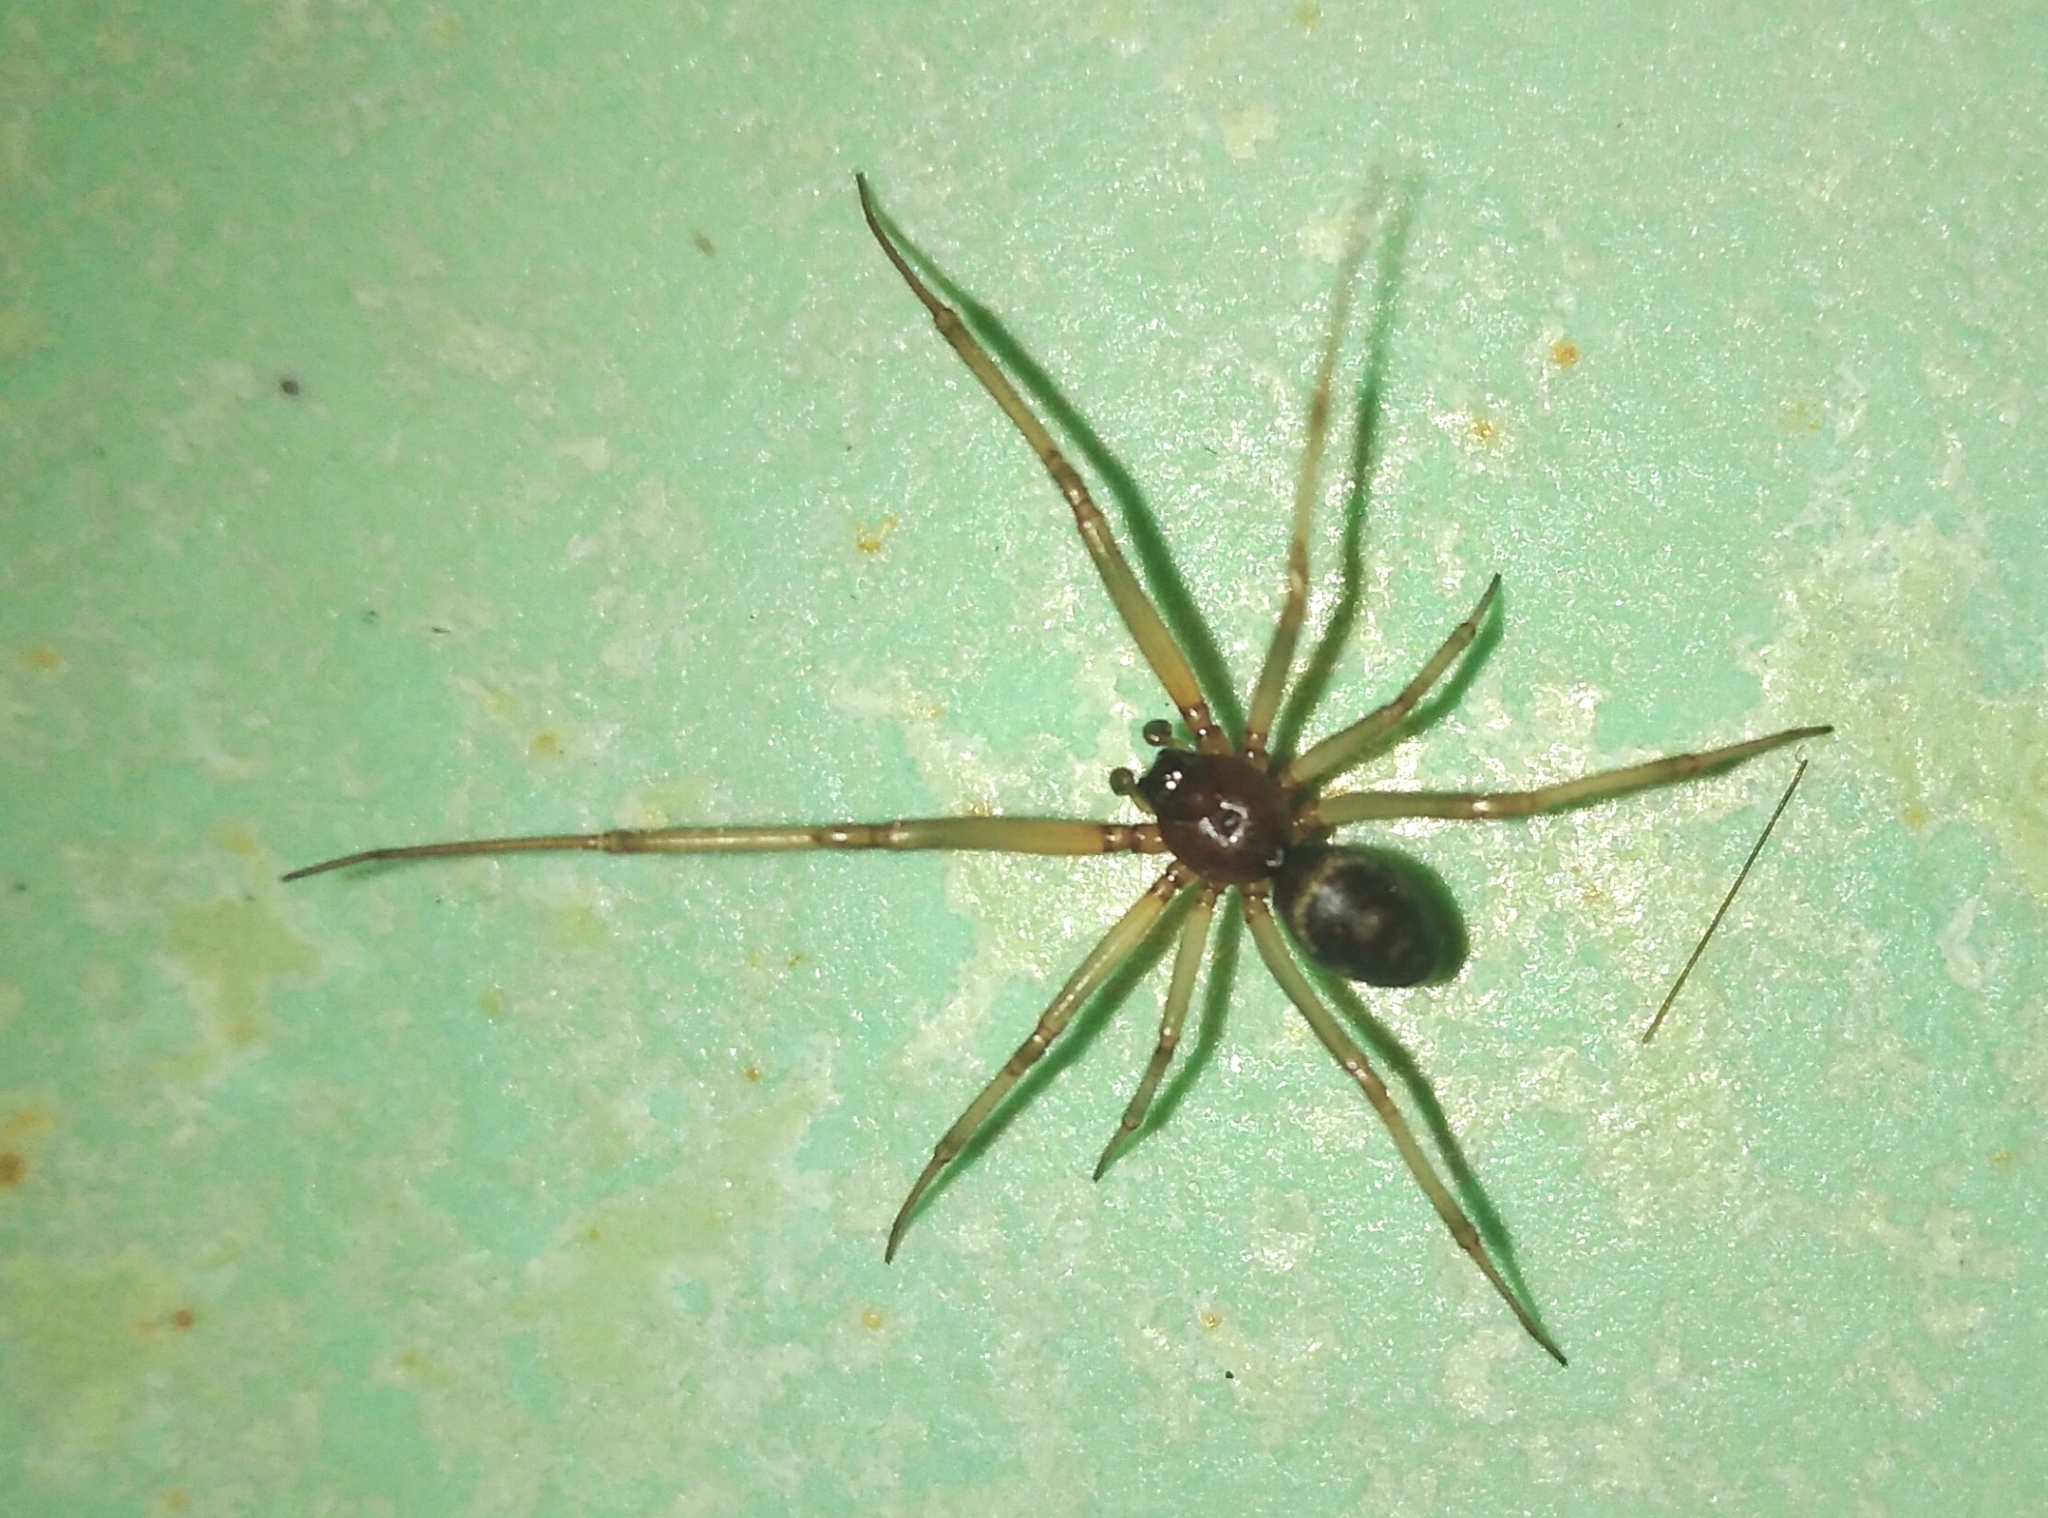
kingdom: Animalia
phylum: Arthropoda
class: Arachnida
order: Araneae
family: Theridiidae
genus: Steatoda
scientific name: Steatoda grossa
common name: False black widow
